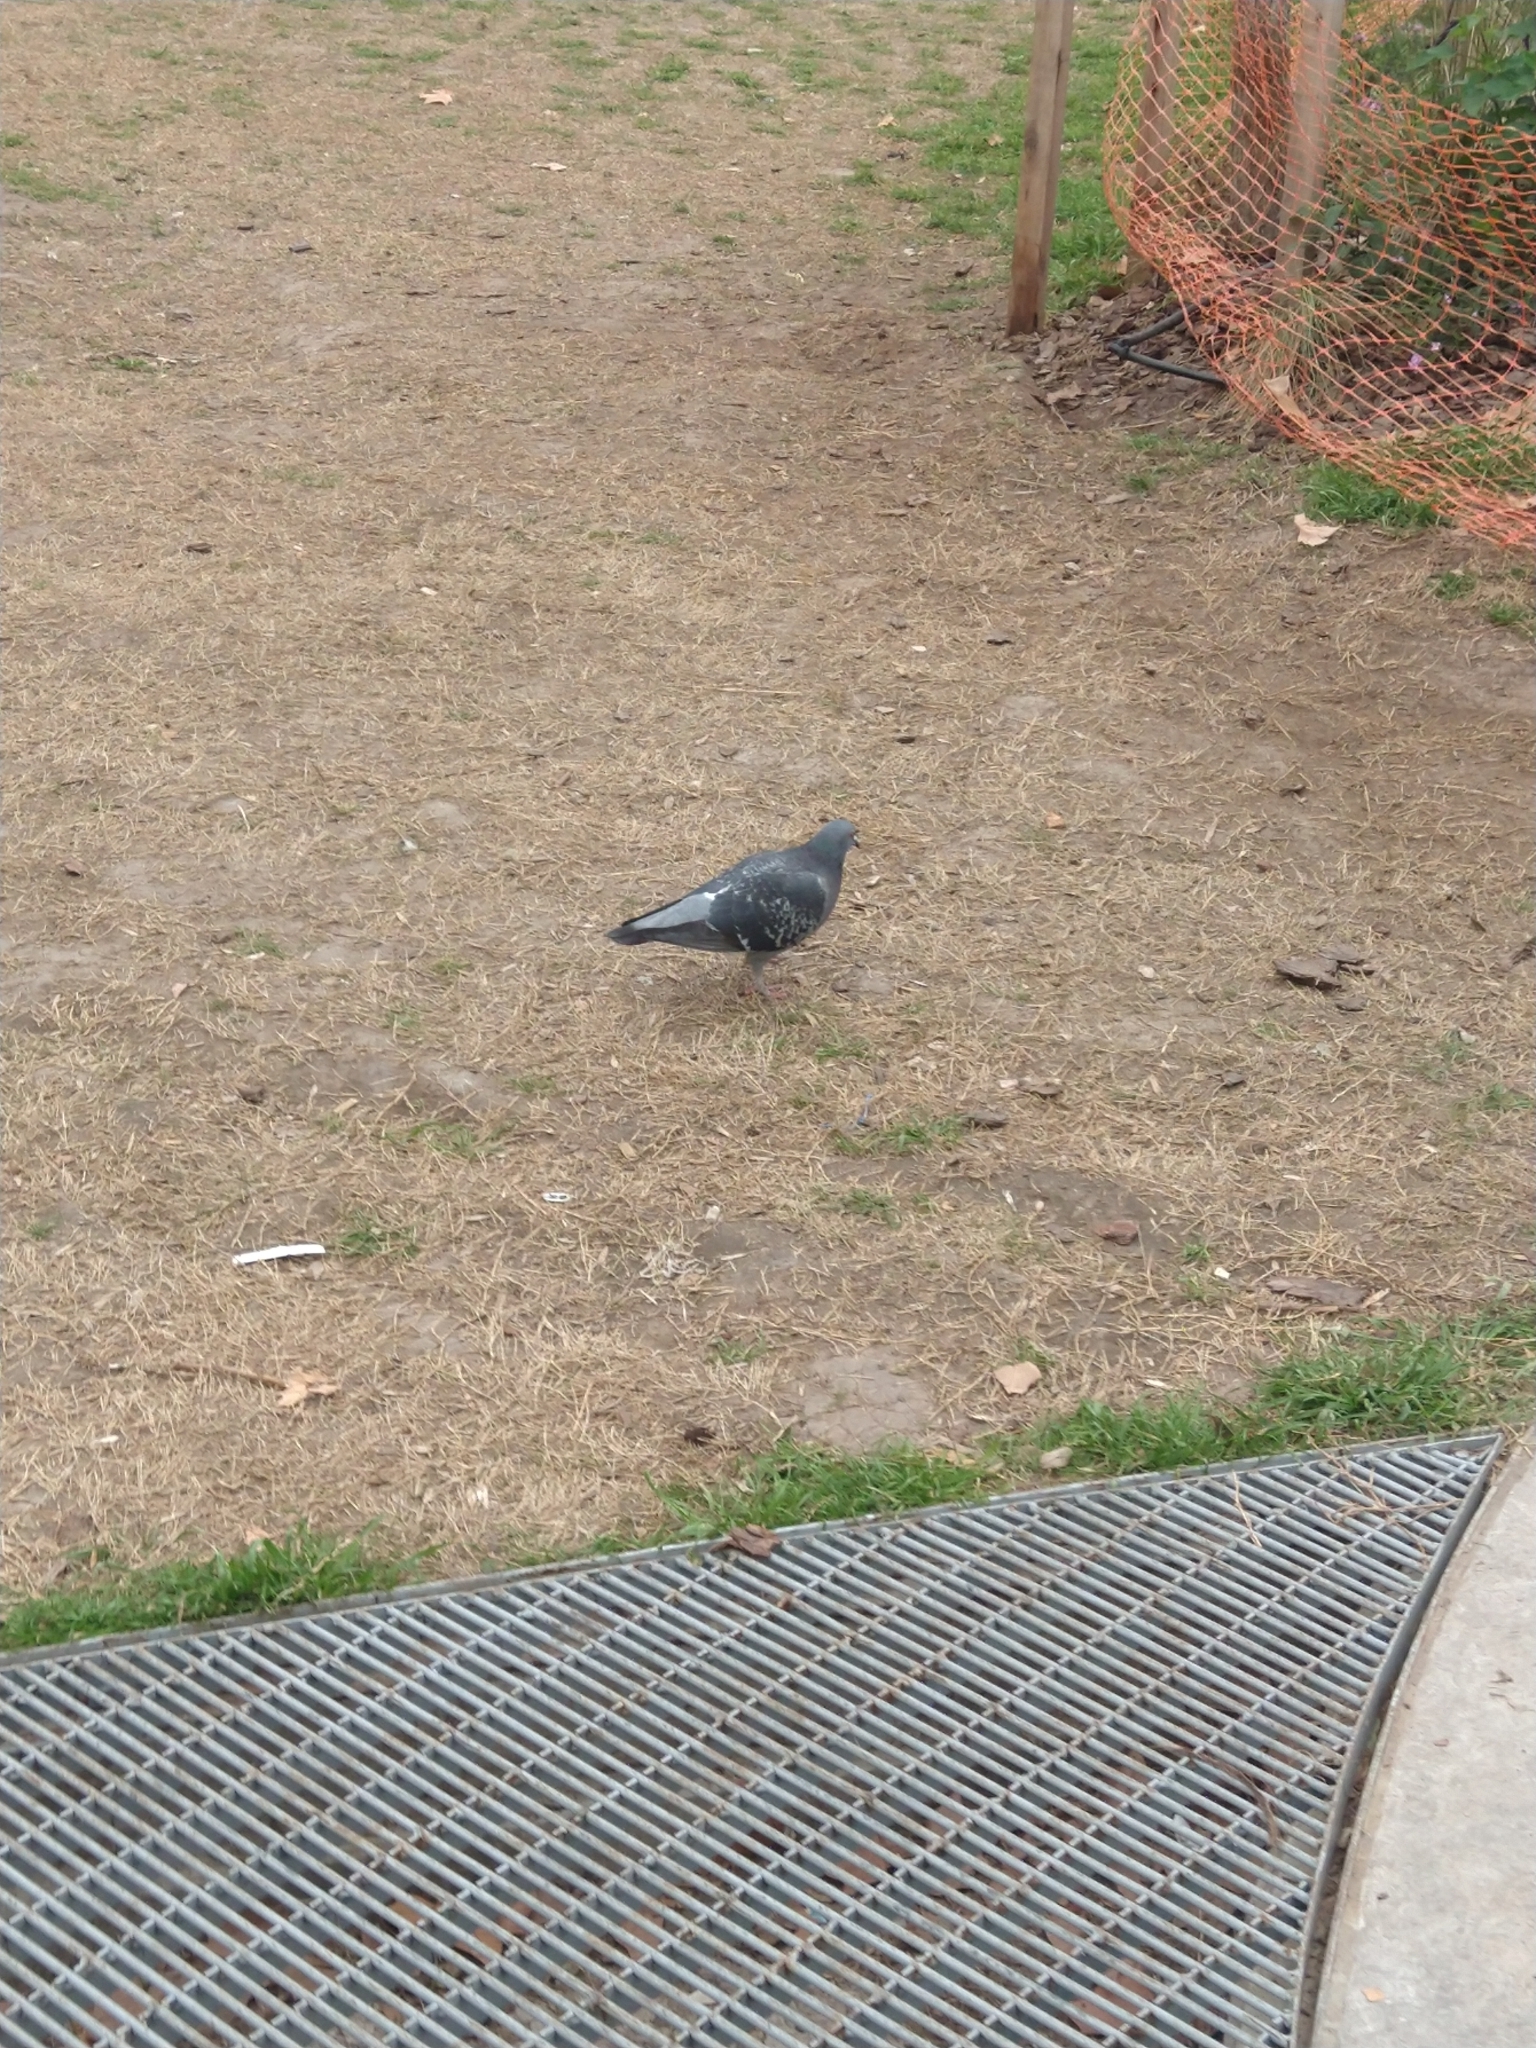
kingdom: Animalia
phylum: Chordata
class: Aves
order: Columbiformes
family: Columbidae
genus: Columba
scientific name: Columba livia
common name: Rock pigeon
